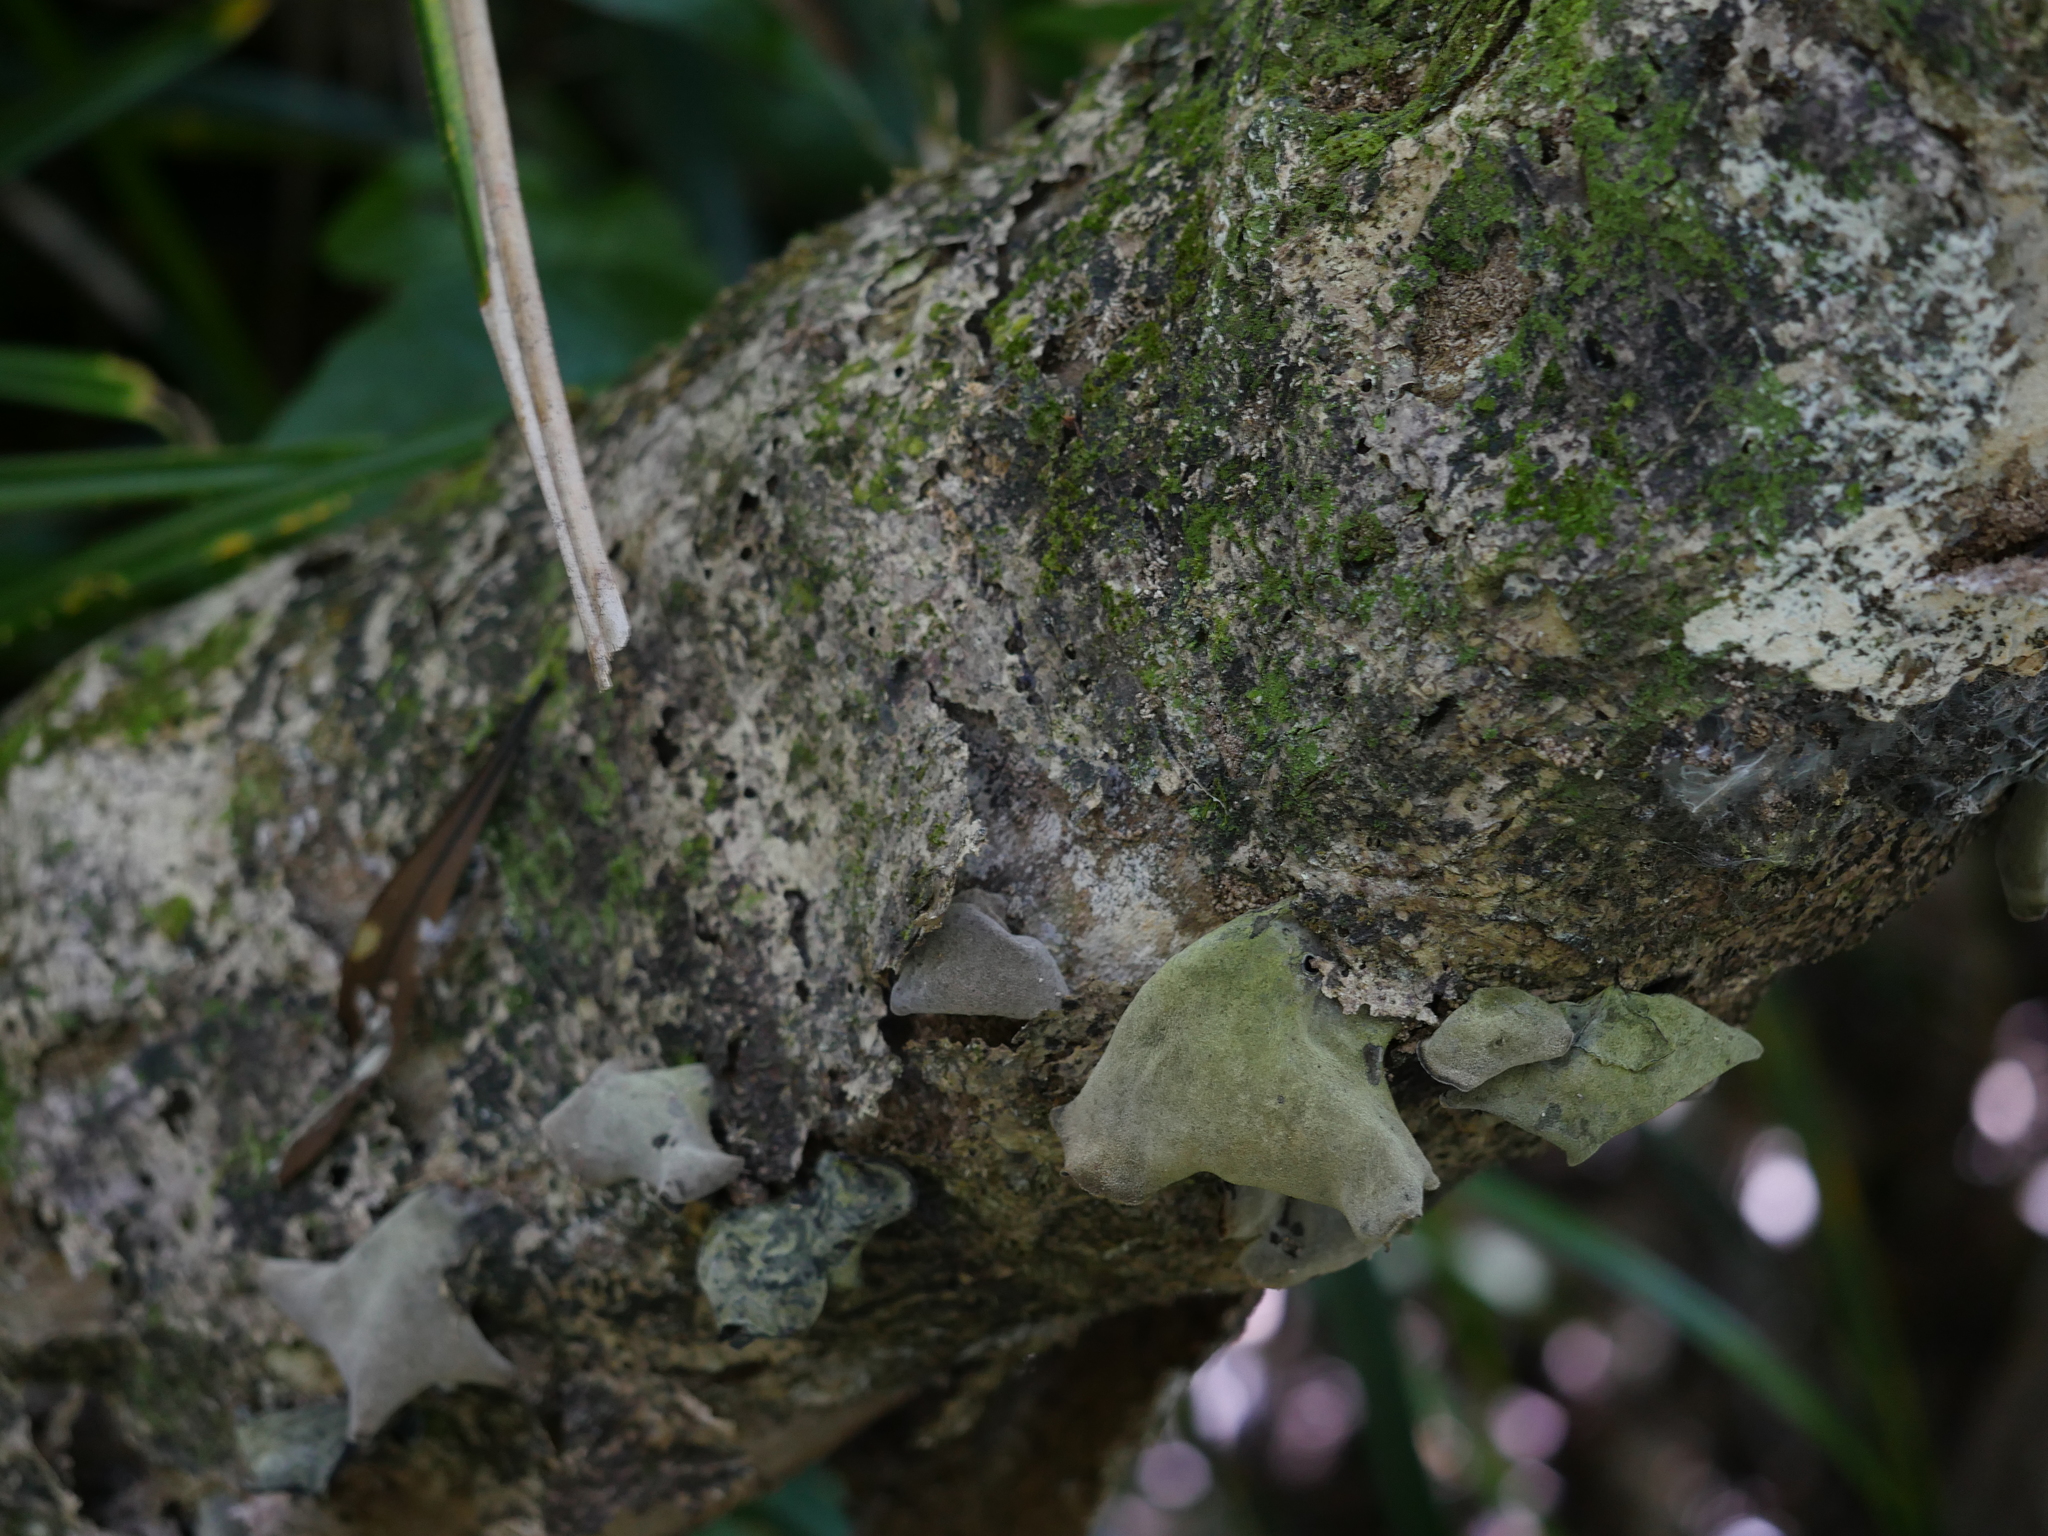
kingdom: Fungi
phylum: Basidiomycota
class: Agaricomycetes
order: Auriculariales
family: Auriculariaceae
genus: Auricularia
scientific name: Auricularia cornea
